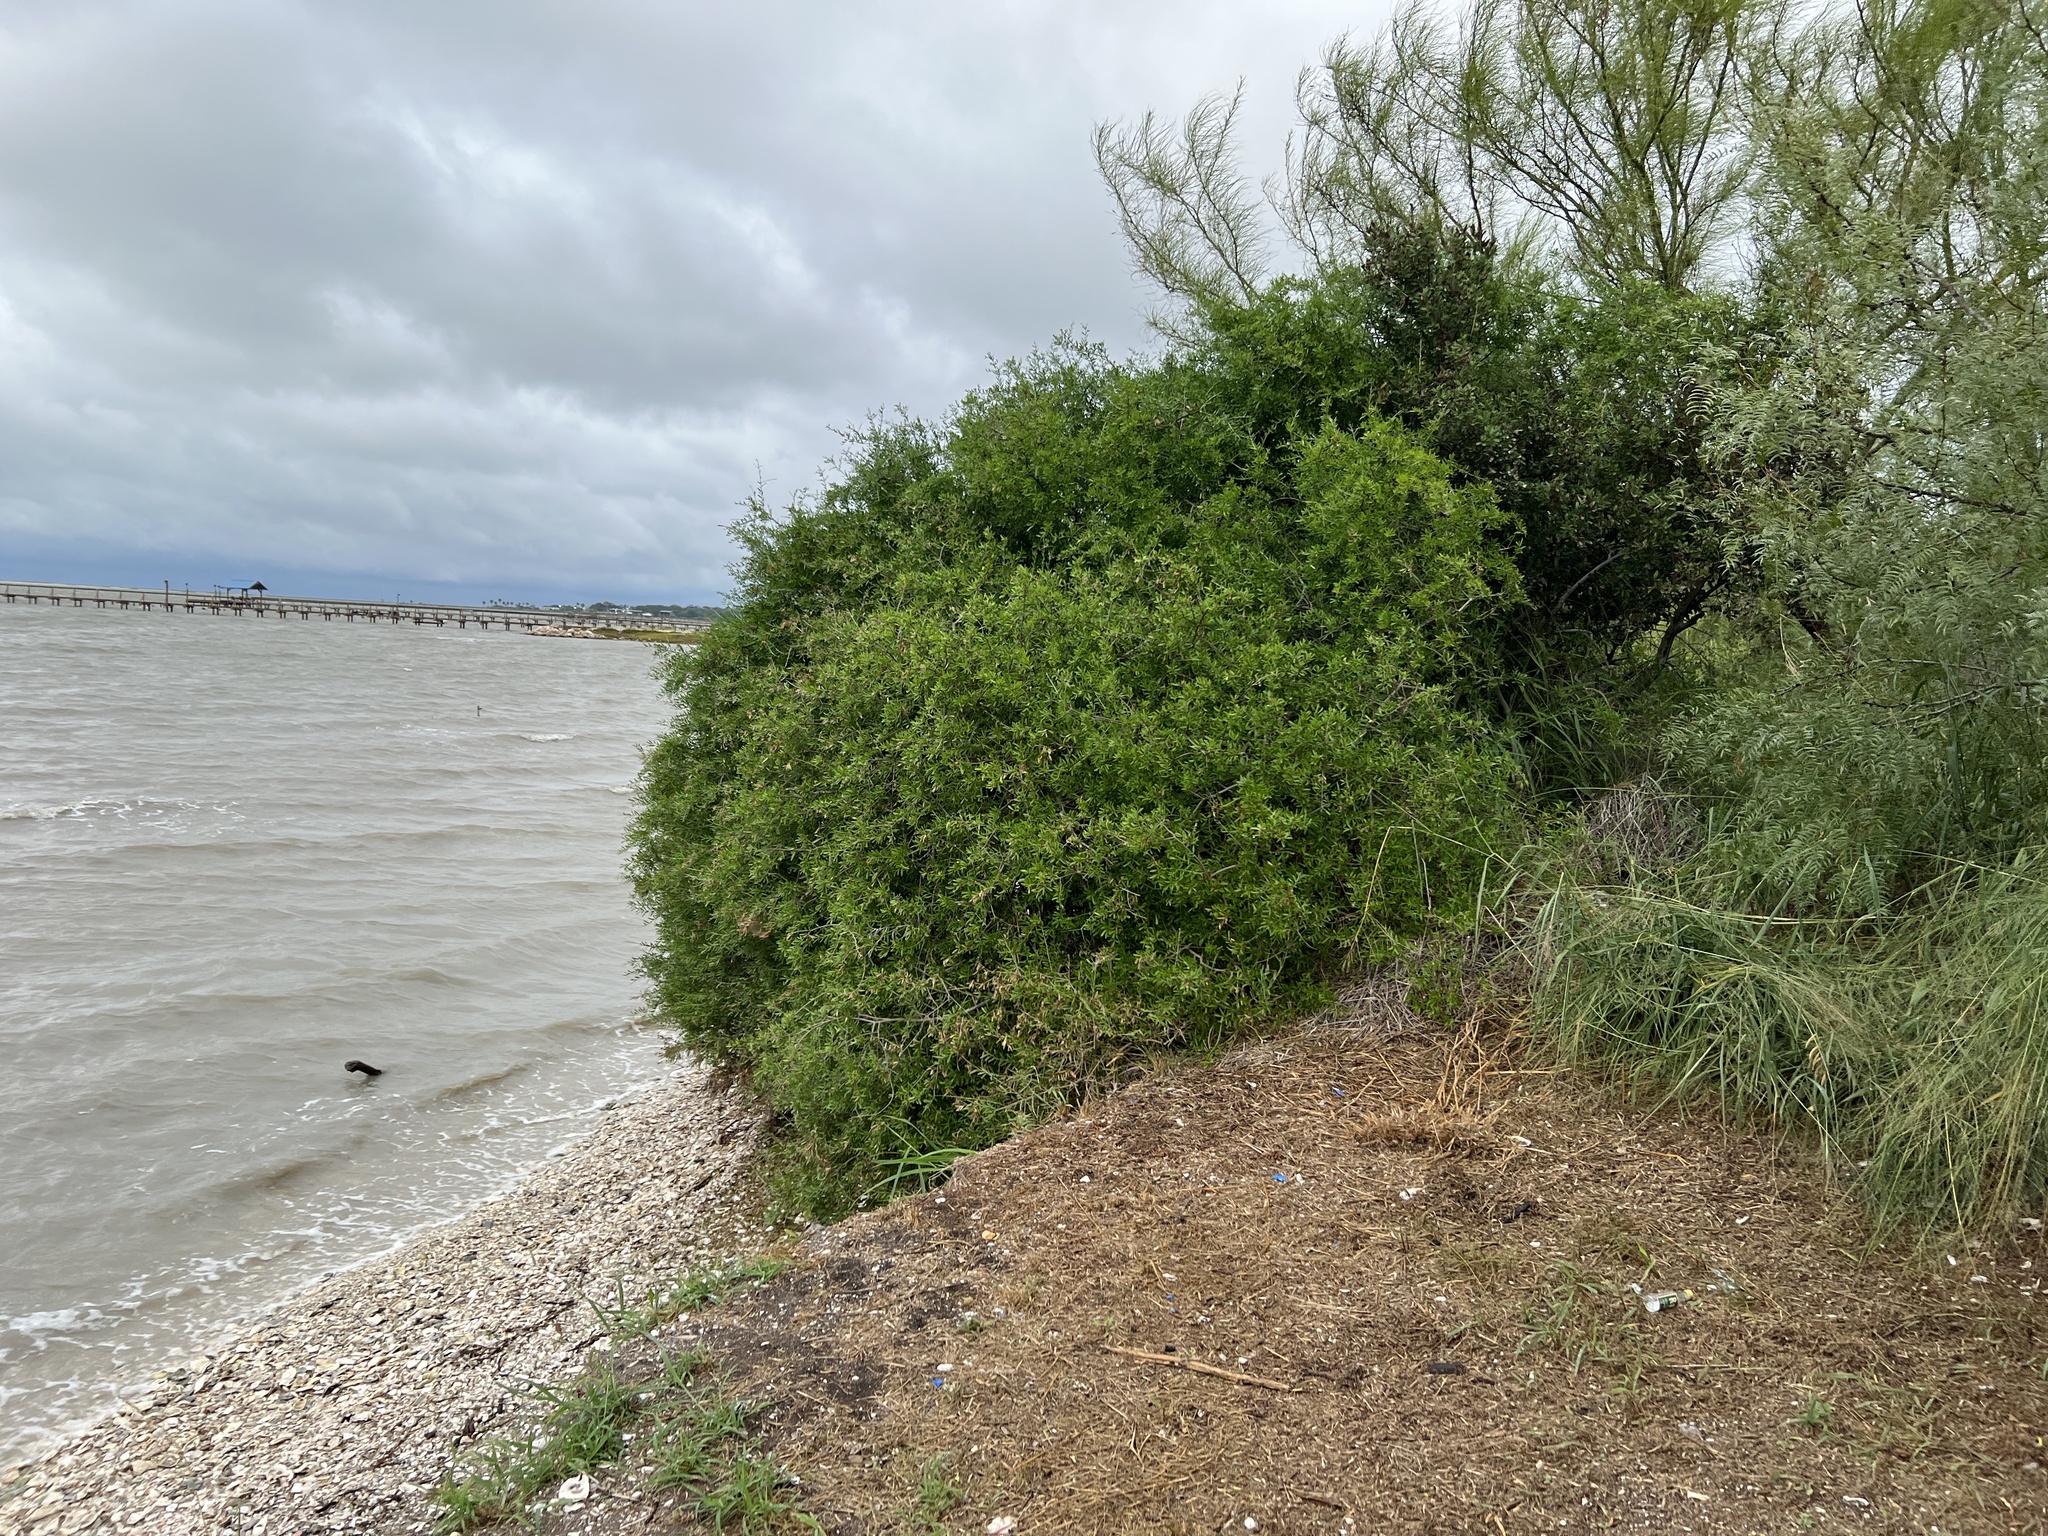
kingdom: Plantae
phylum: Tracheophyta
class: Magnoliopsida
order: Lamiales
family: Oleaceae
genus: Forestiera
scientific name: Forestiera angustifolia
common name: Elbowbush
